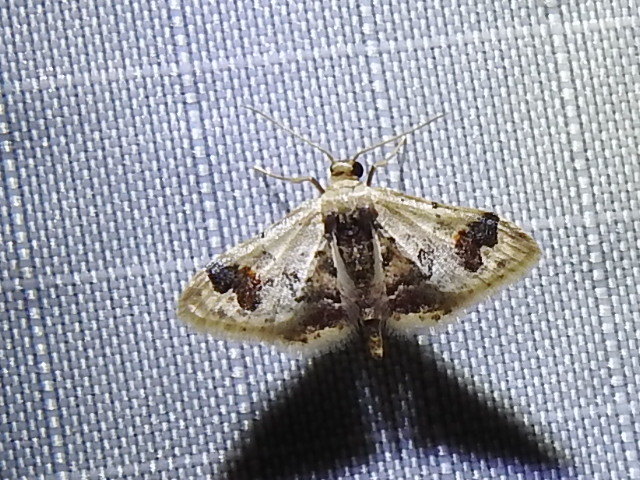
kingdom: Animalia
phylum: Arthropoda
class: Insecta
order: Lepidoptera
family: Geometridae
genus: Idaea
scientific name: Idaea asceta
